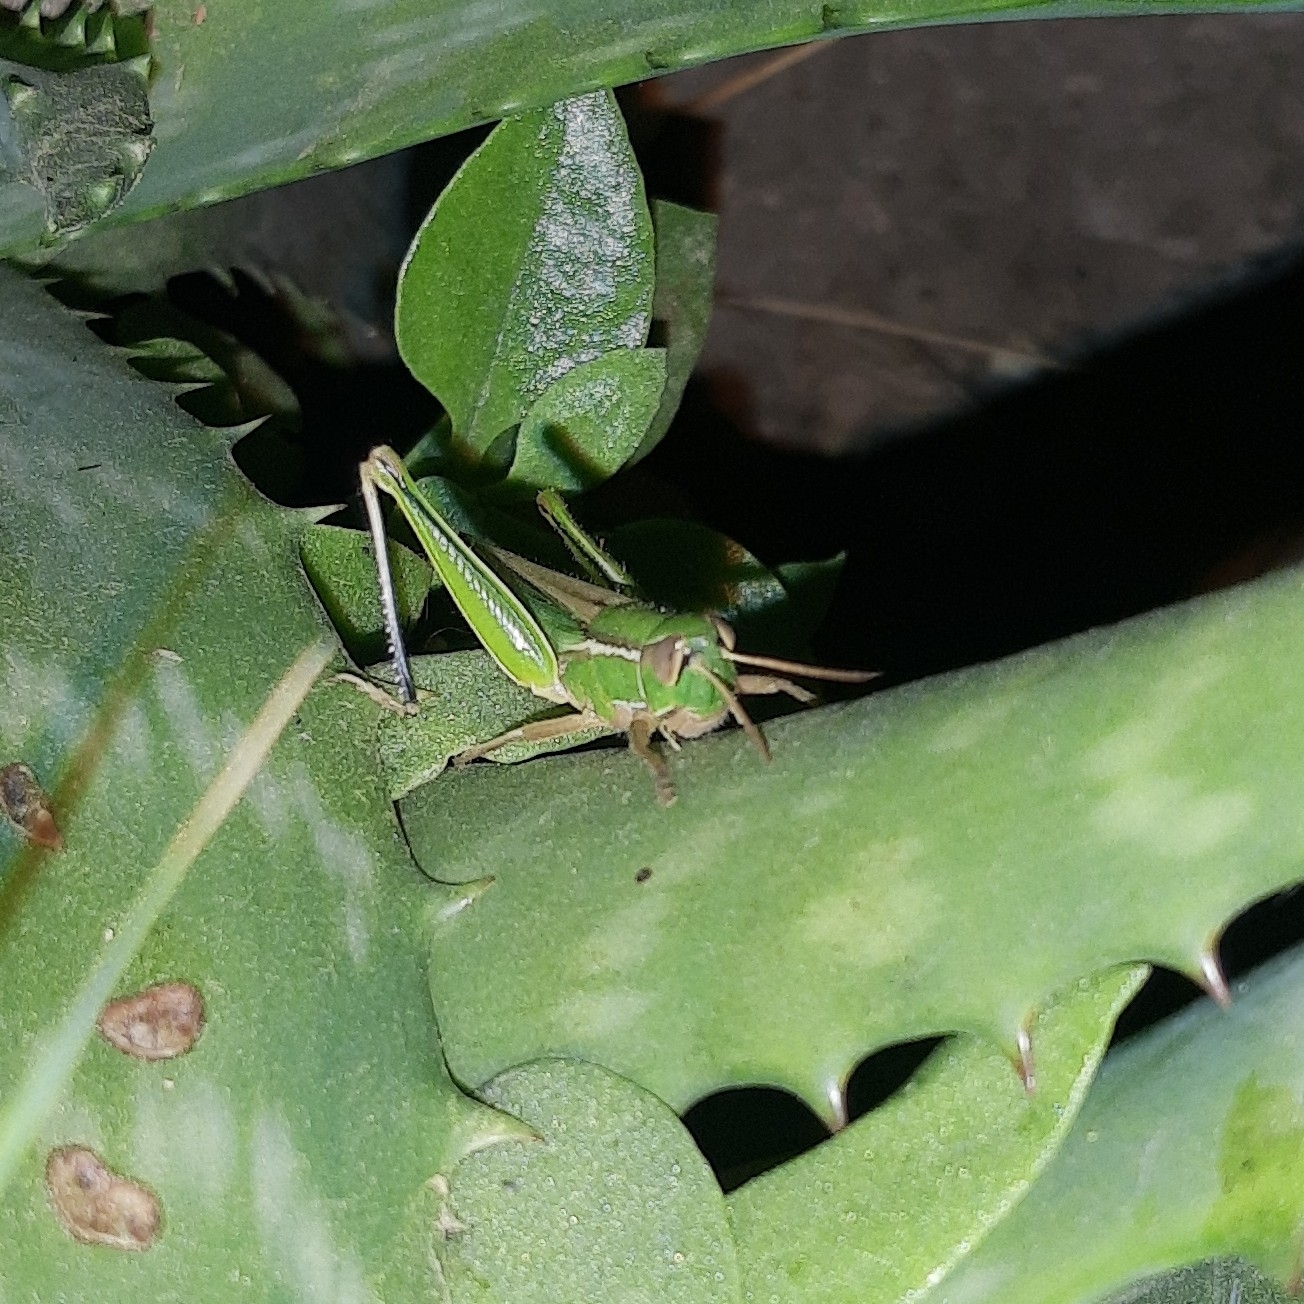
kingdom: Animalia
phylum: Arthropoda
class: Insecta
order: Orthoptera
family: Acrididae
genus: Aleuas
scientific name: Aleuas lineatus
